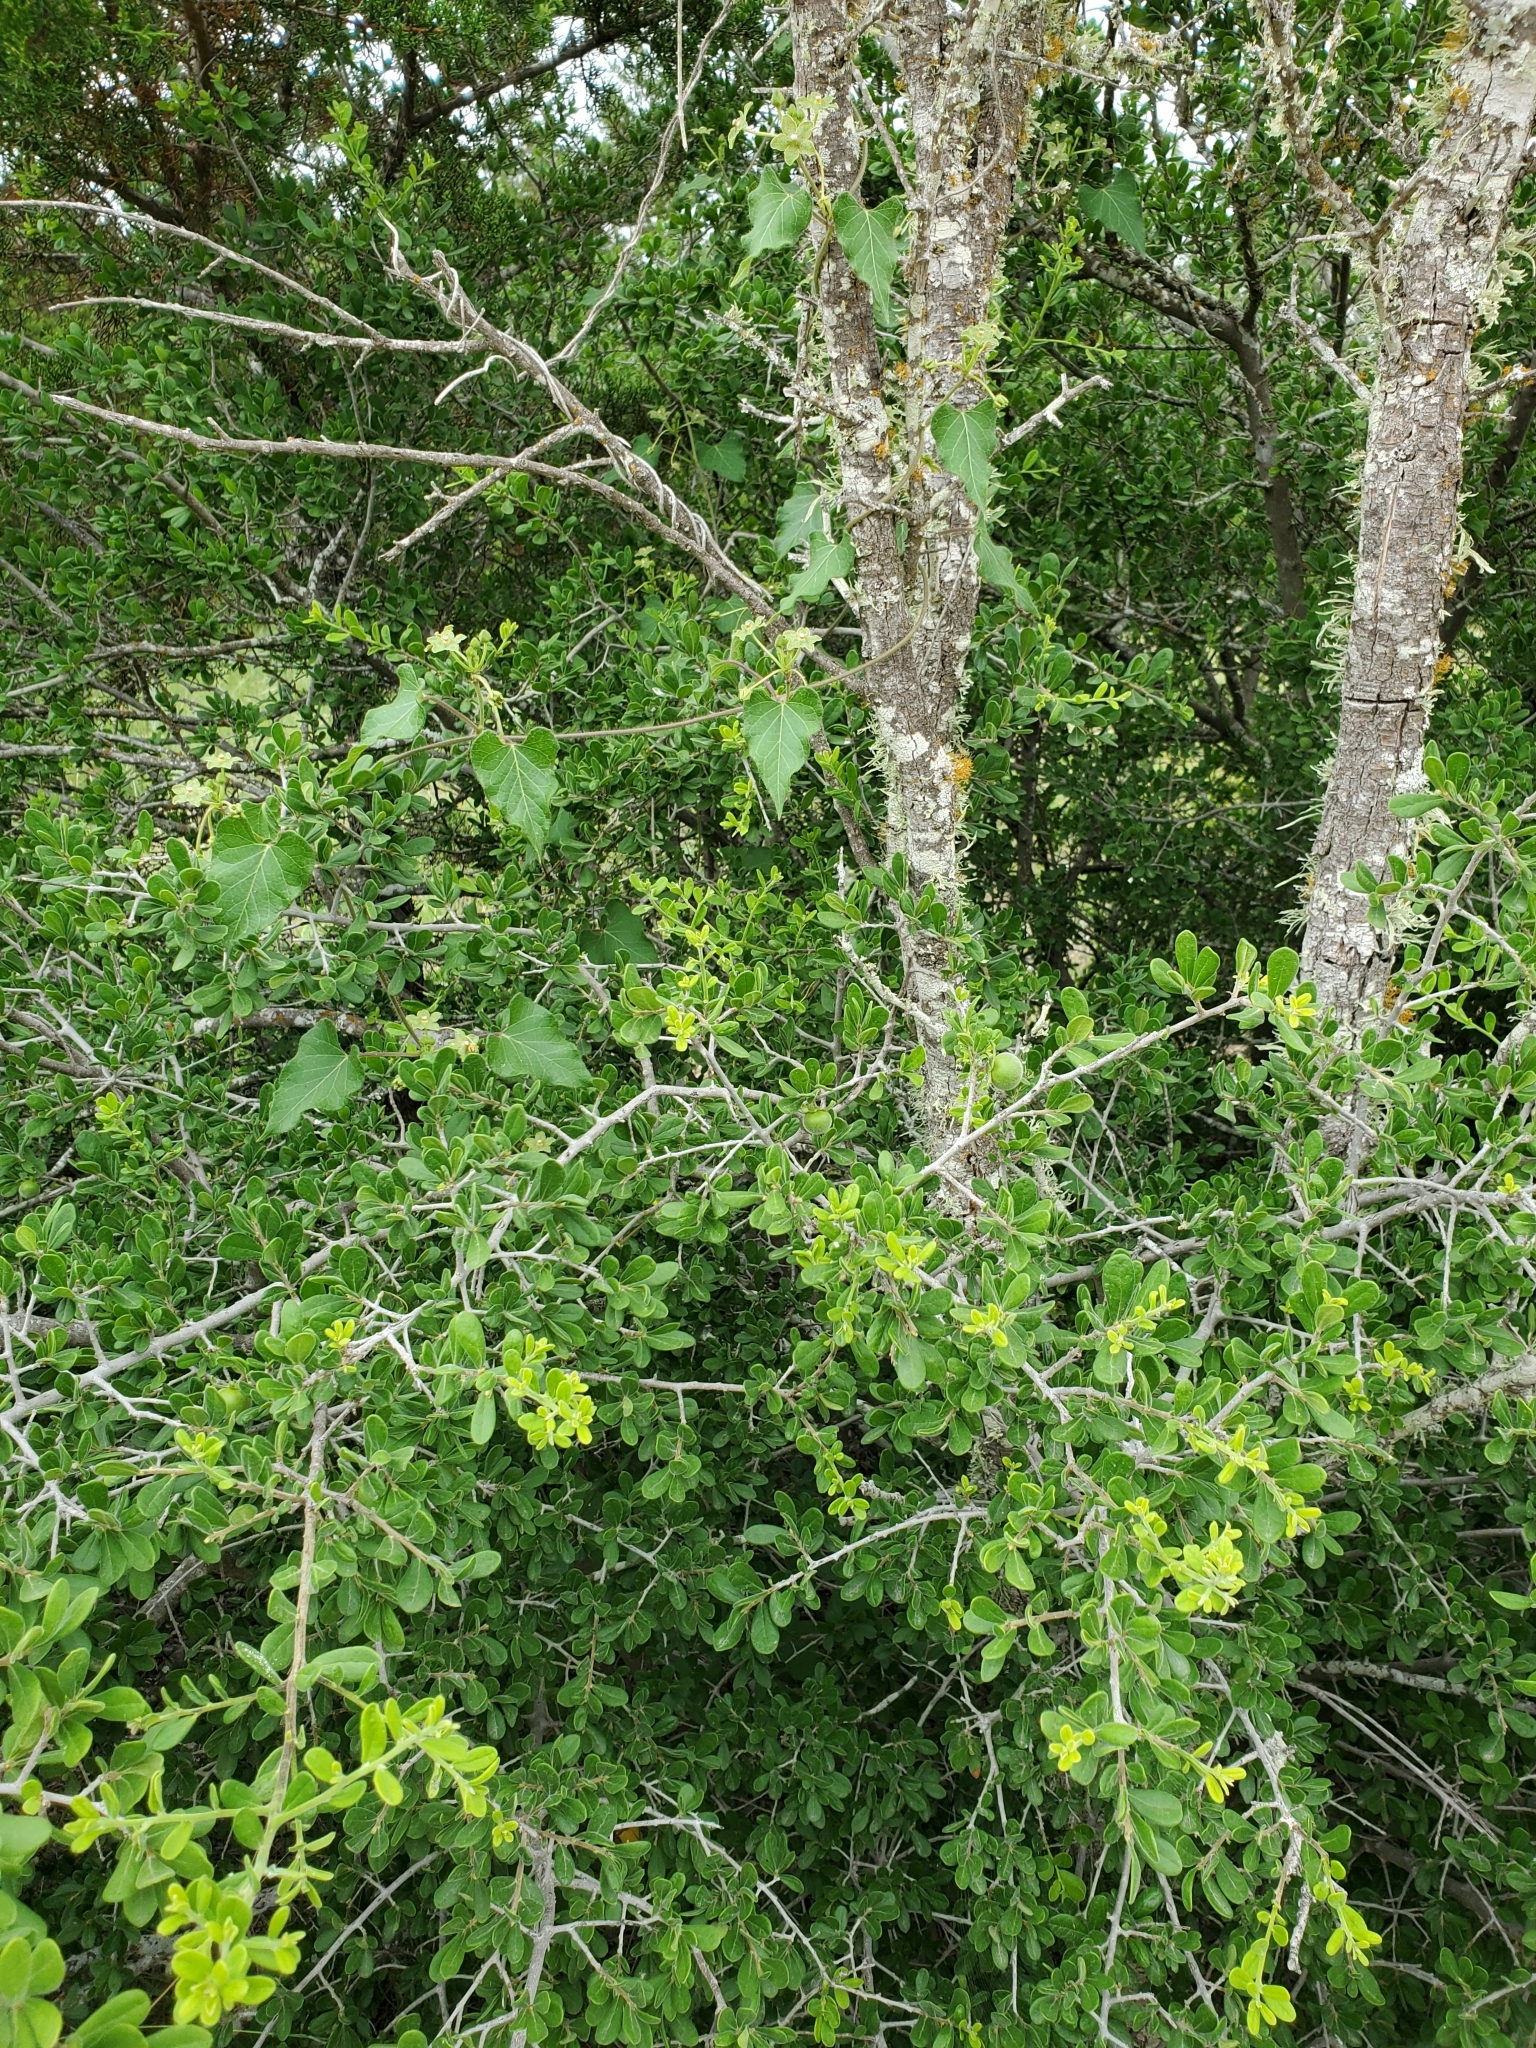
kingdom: Plantae
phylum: Tracheophyta
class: Magnoliopsida
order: Gentianales
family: Apocynaceae
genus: Dictyanthus
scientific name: Dictyanthus reticulatus
